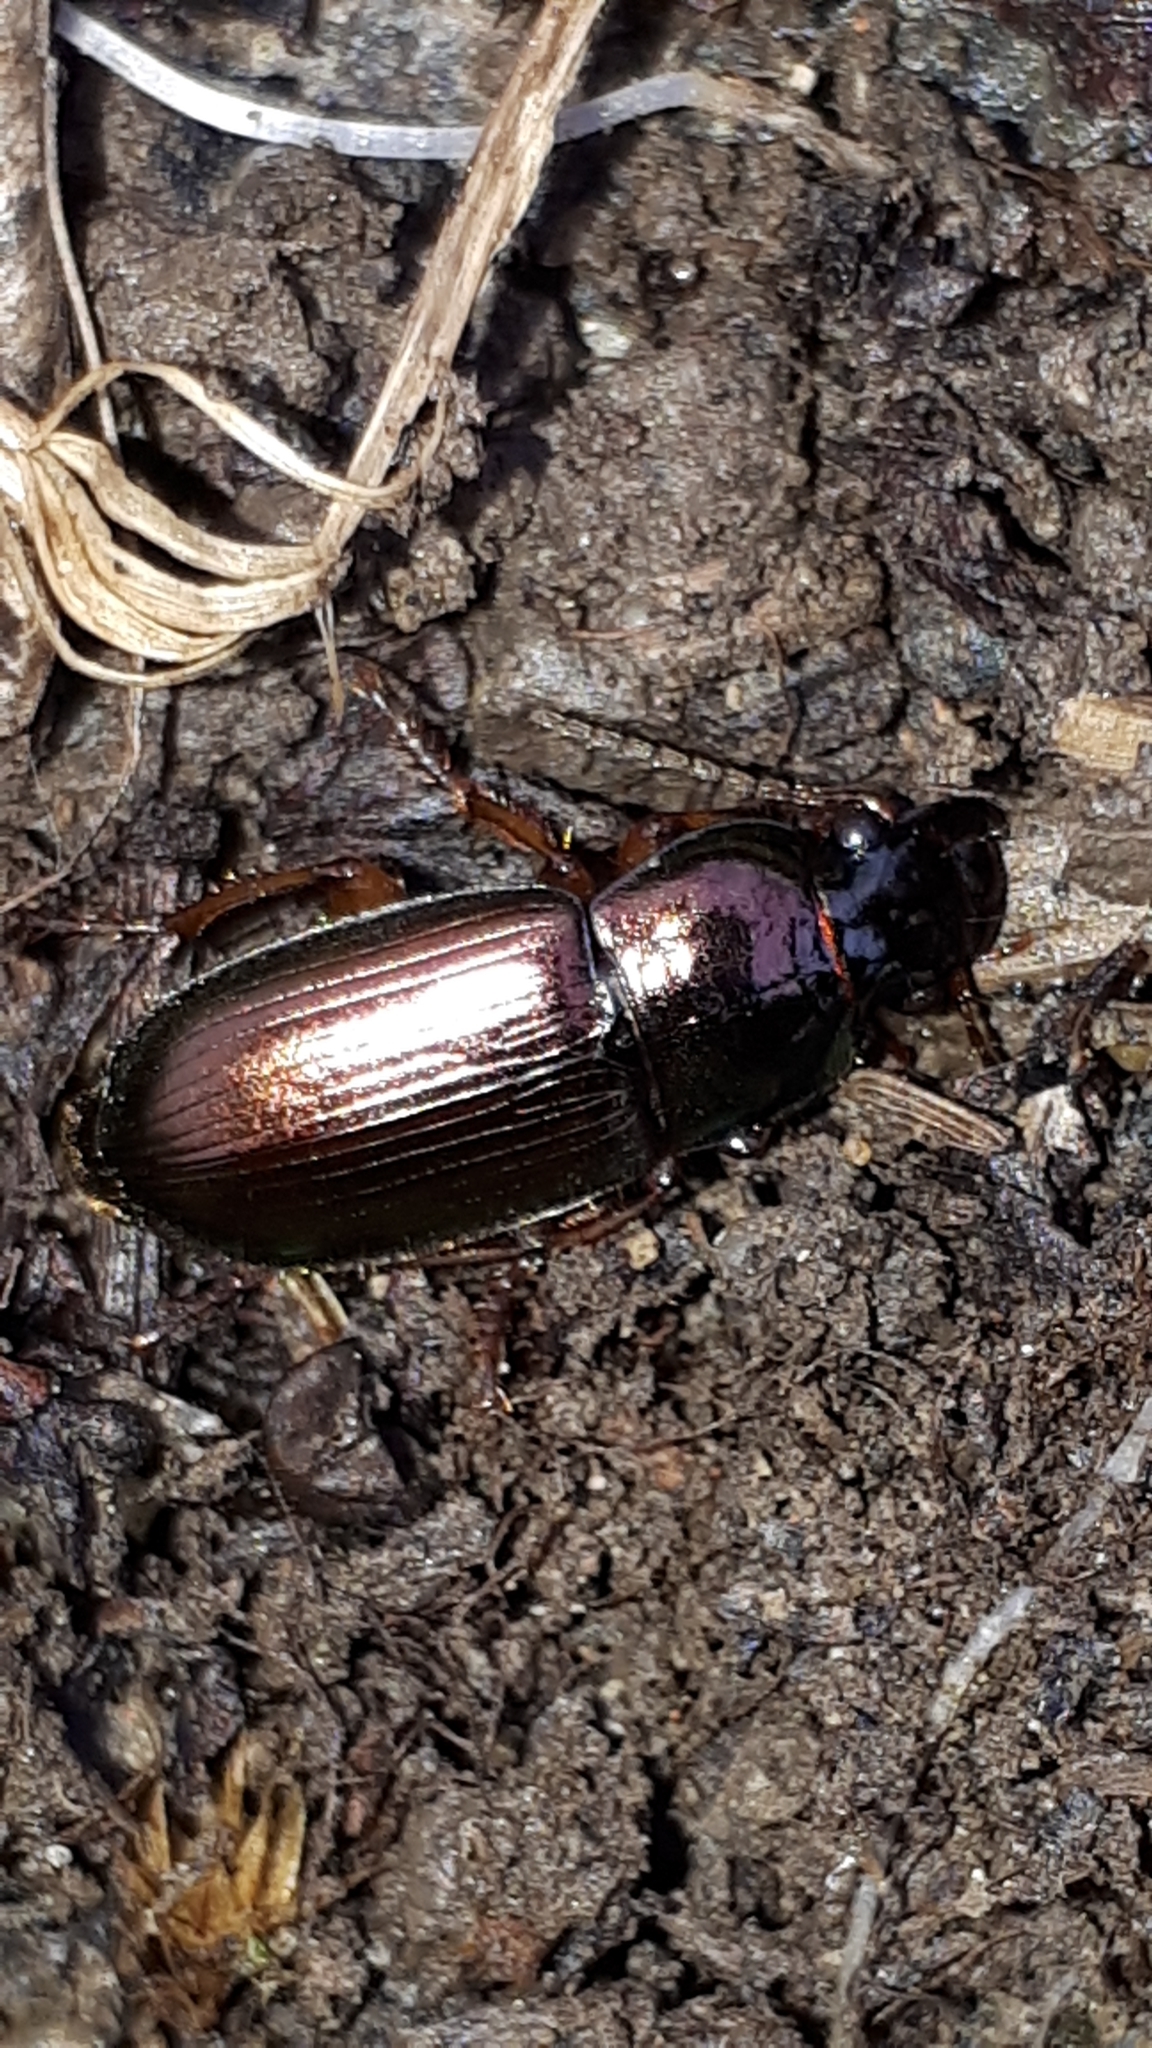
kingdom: Animalia
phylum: Arthropoda
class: Insecta
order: Coleoptera
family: Carabidae
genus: Harpalus
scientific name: Harpalus affinis
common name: Polychrome harp ground beetle
